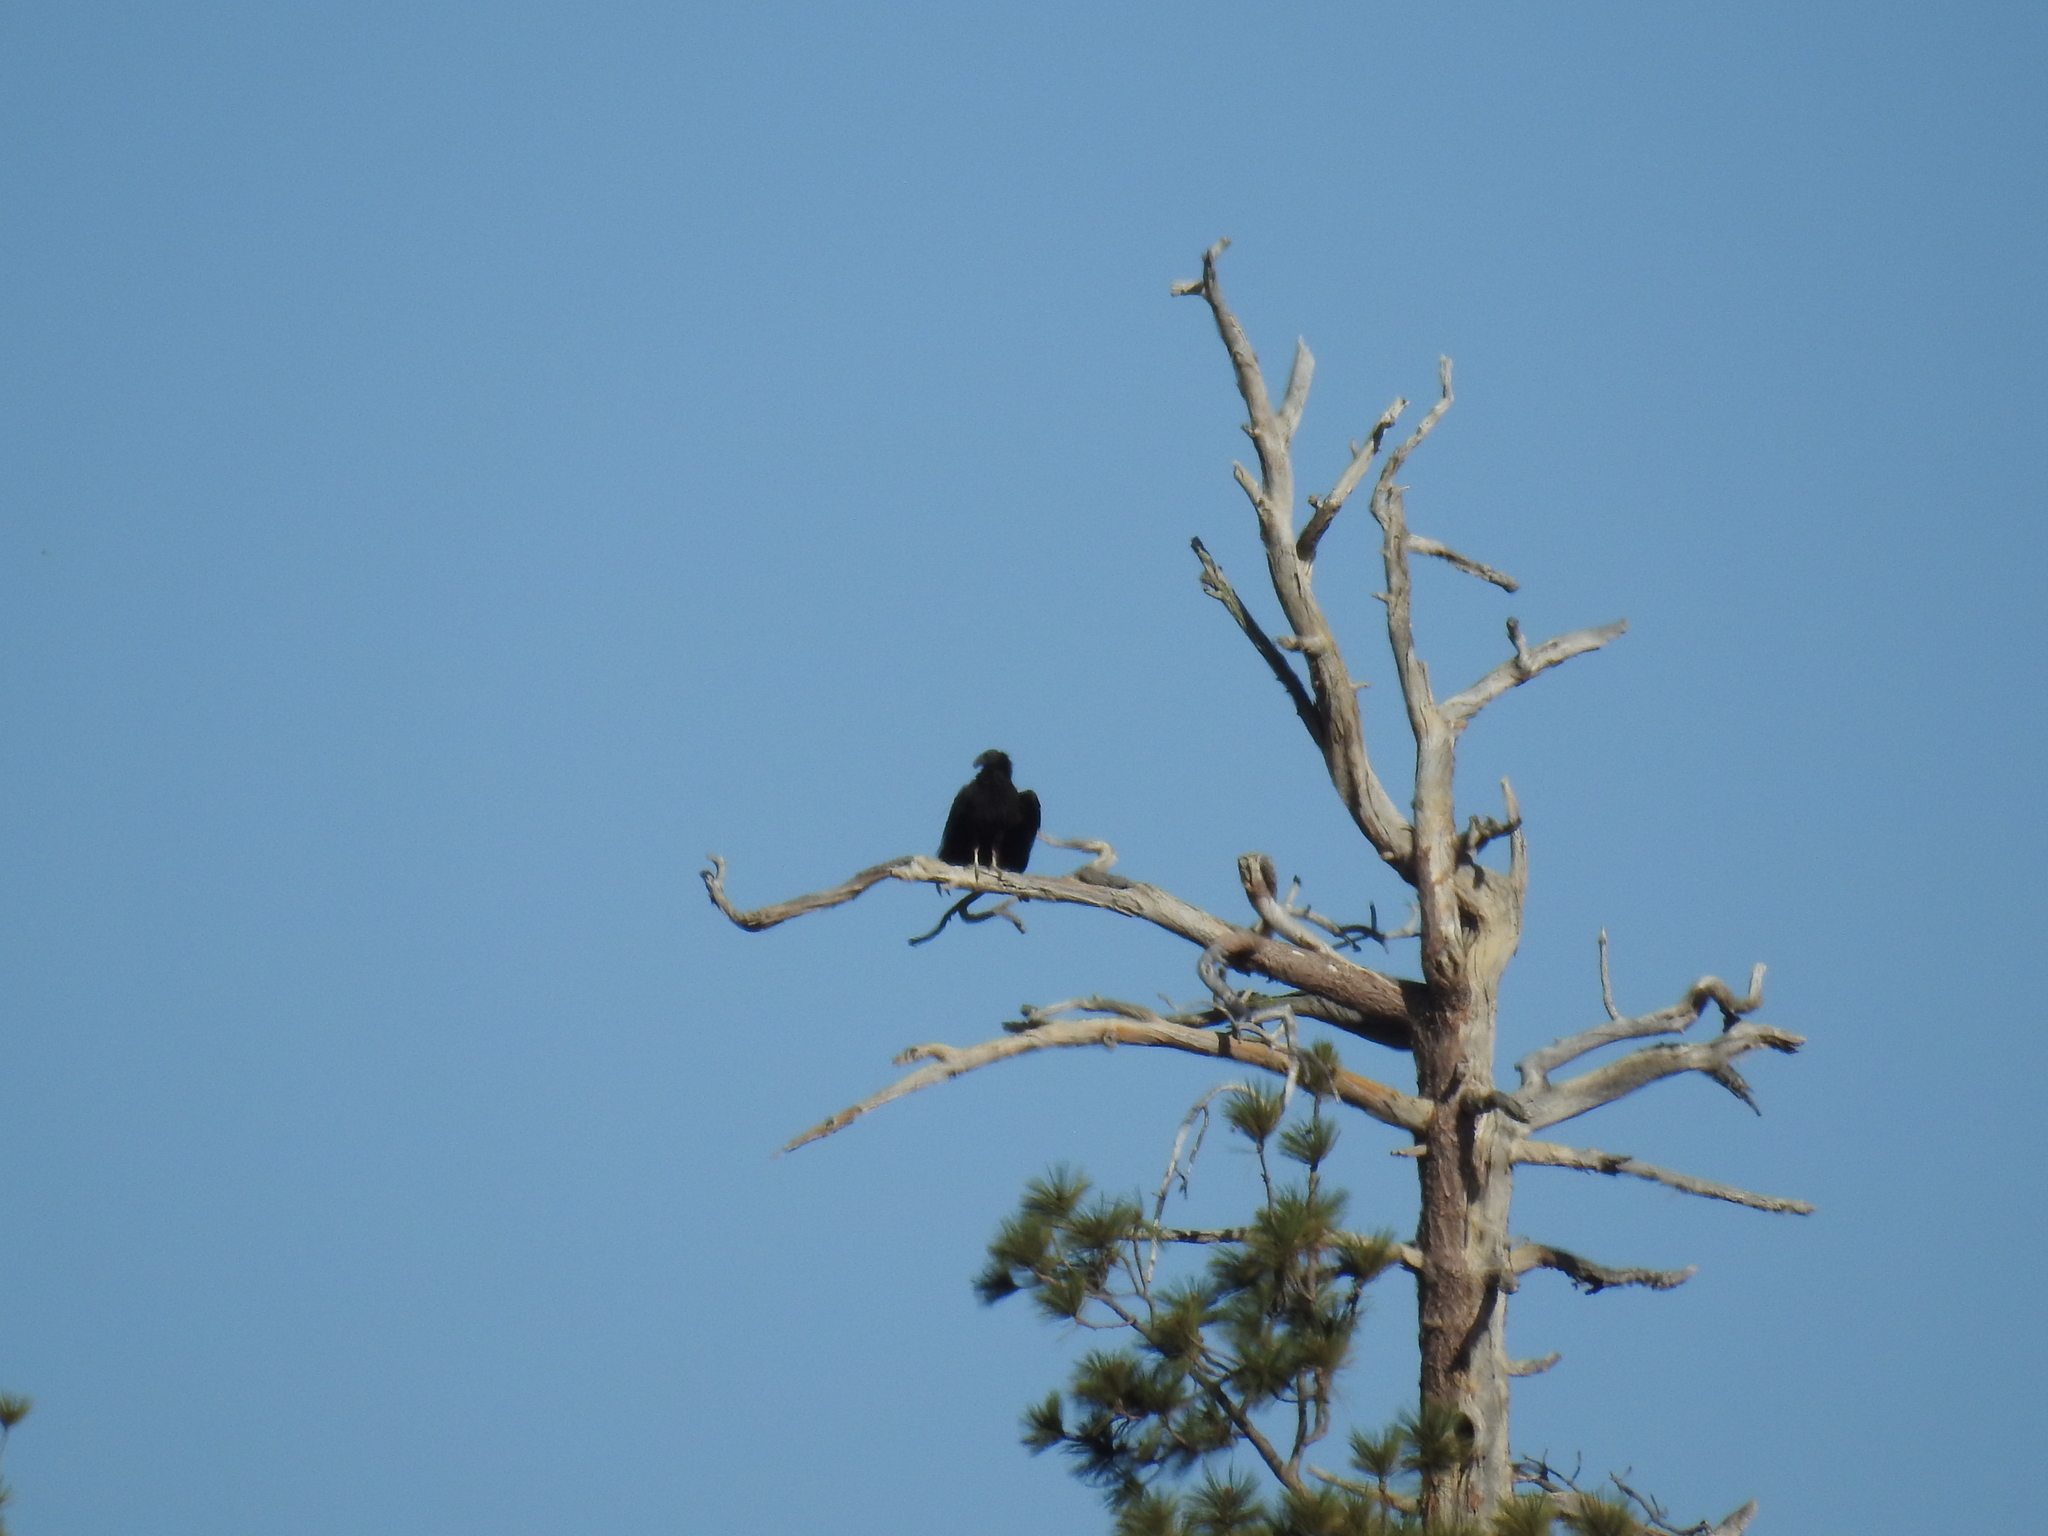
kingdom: Animalia
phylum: Chordata
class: Aves
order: Accipitriformes
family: Cathartidae
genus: Gymnogyps
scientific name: Gymnogyps californianus
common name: California condor
